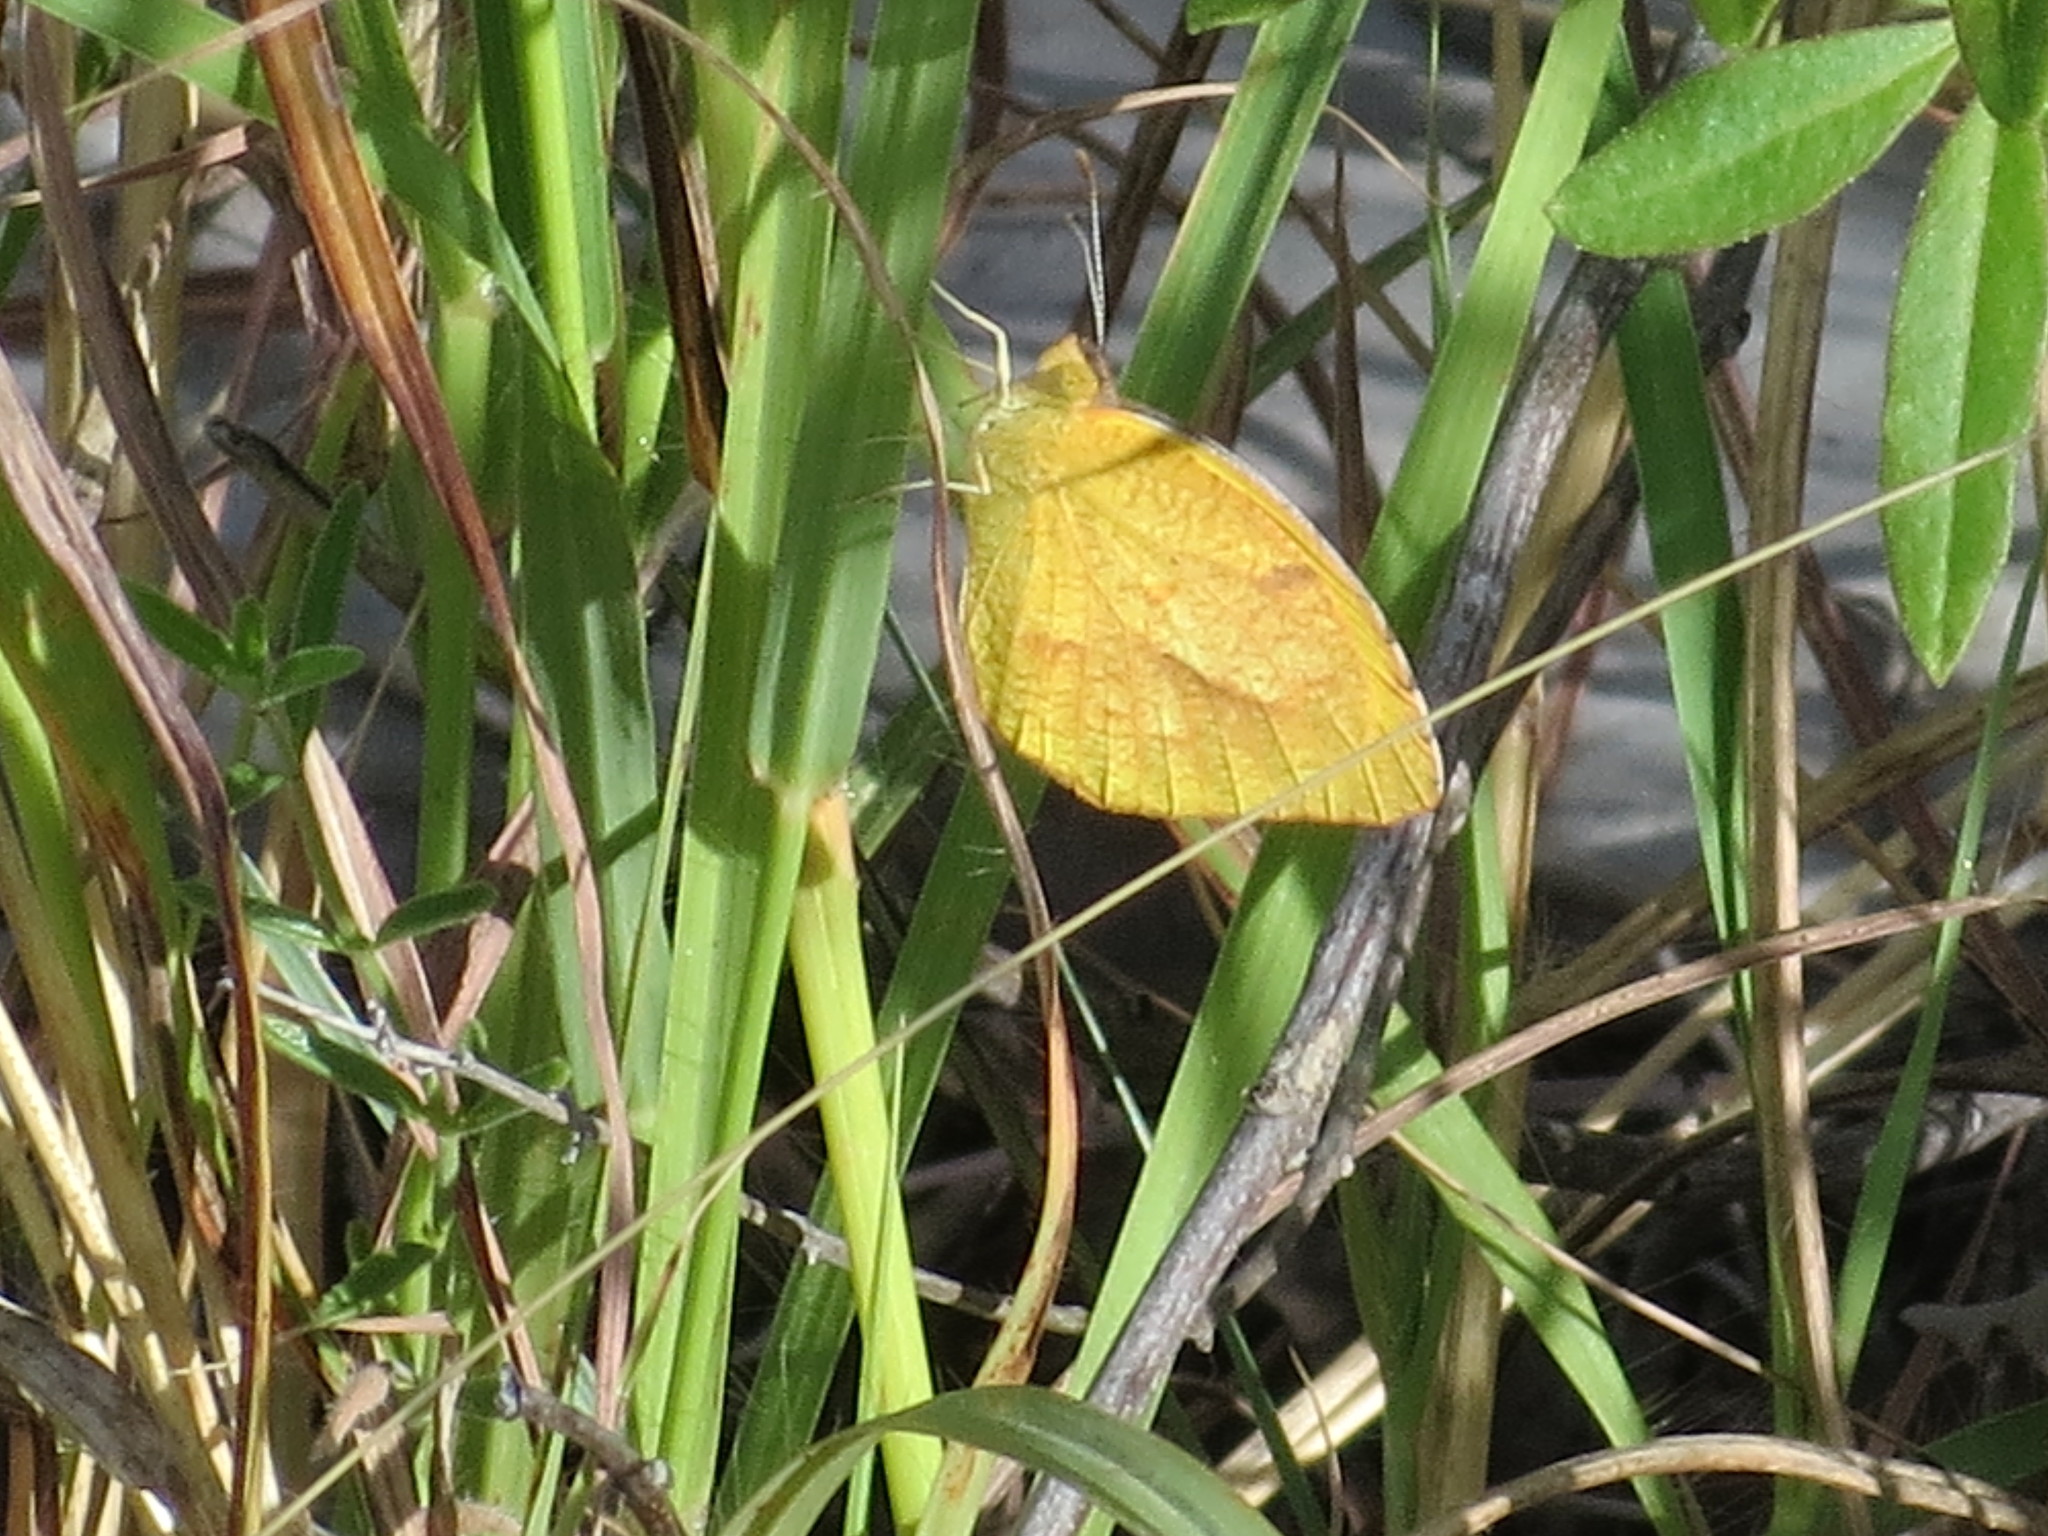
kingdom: Animalia
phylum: Arthropoda
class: Insecta
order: Lepidoptera
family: Pieridae
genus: Abaeis
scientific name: Abaeis nicippe
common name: Sleepy orange
